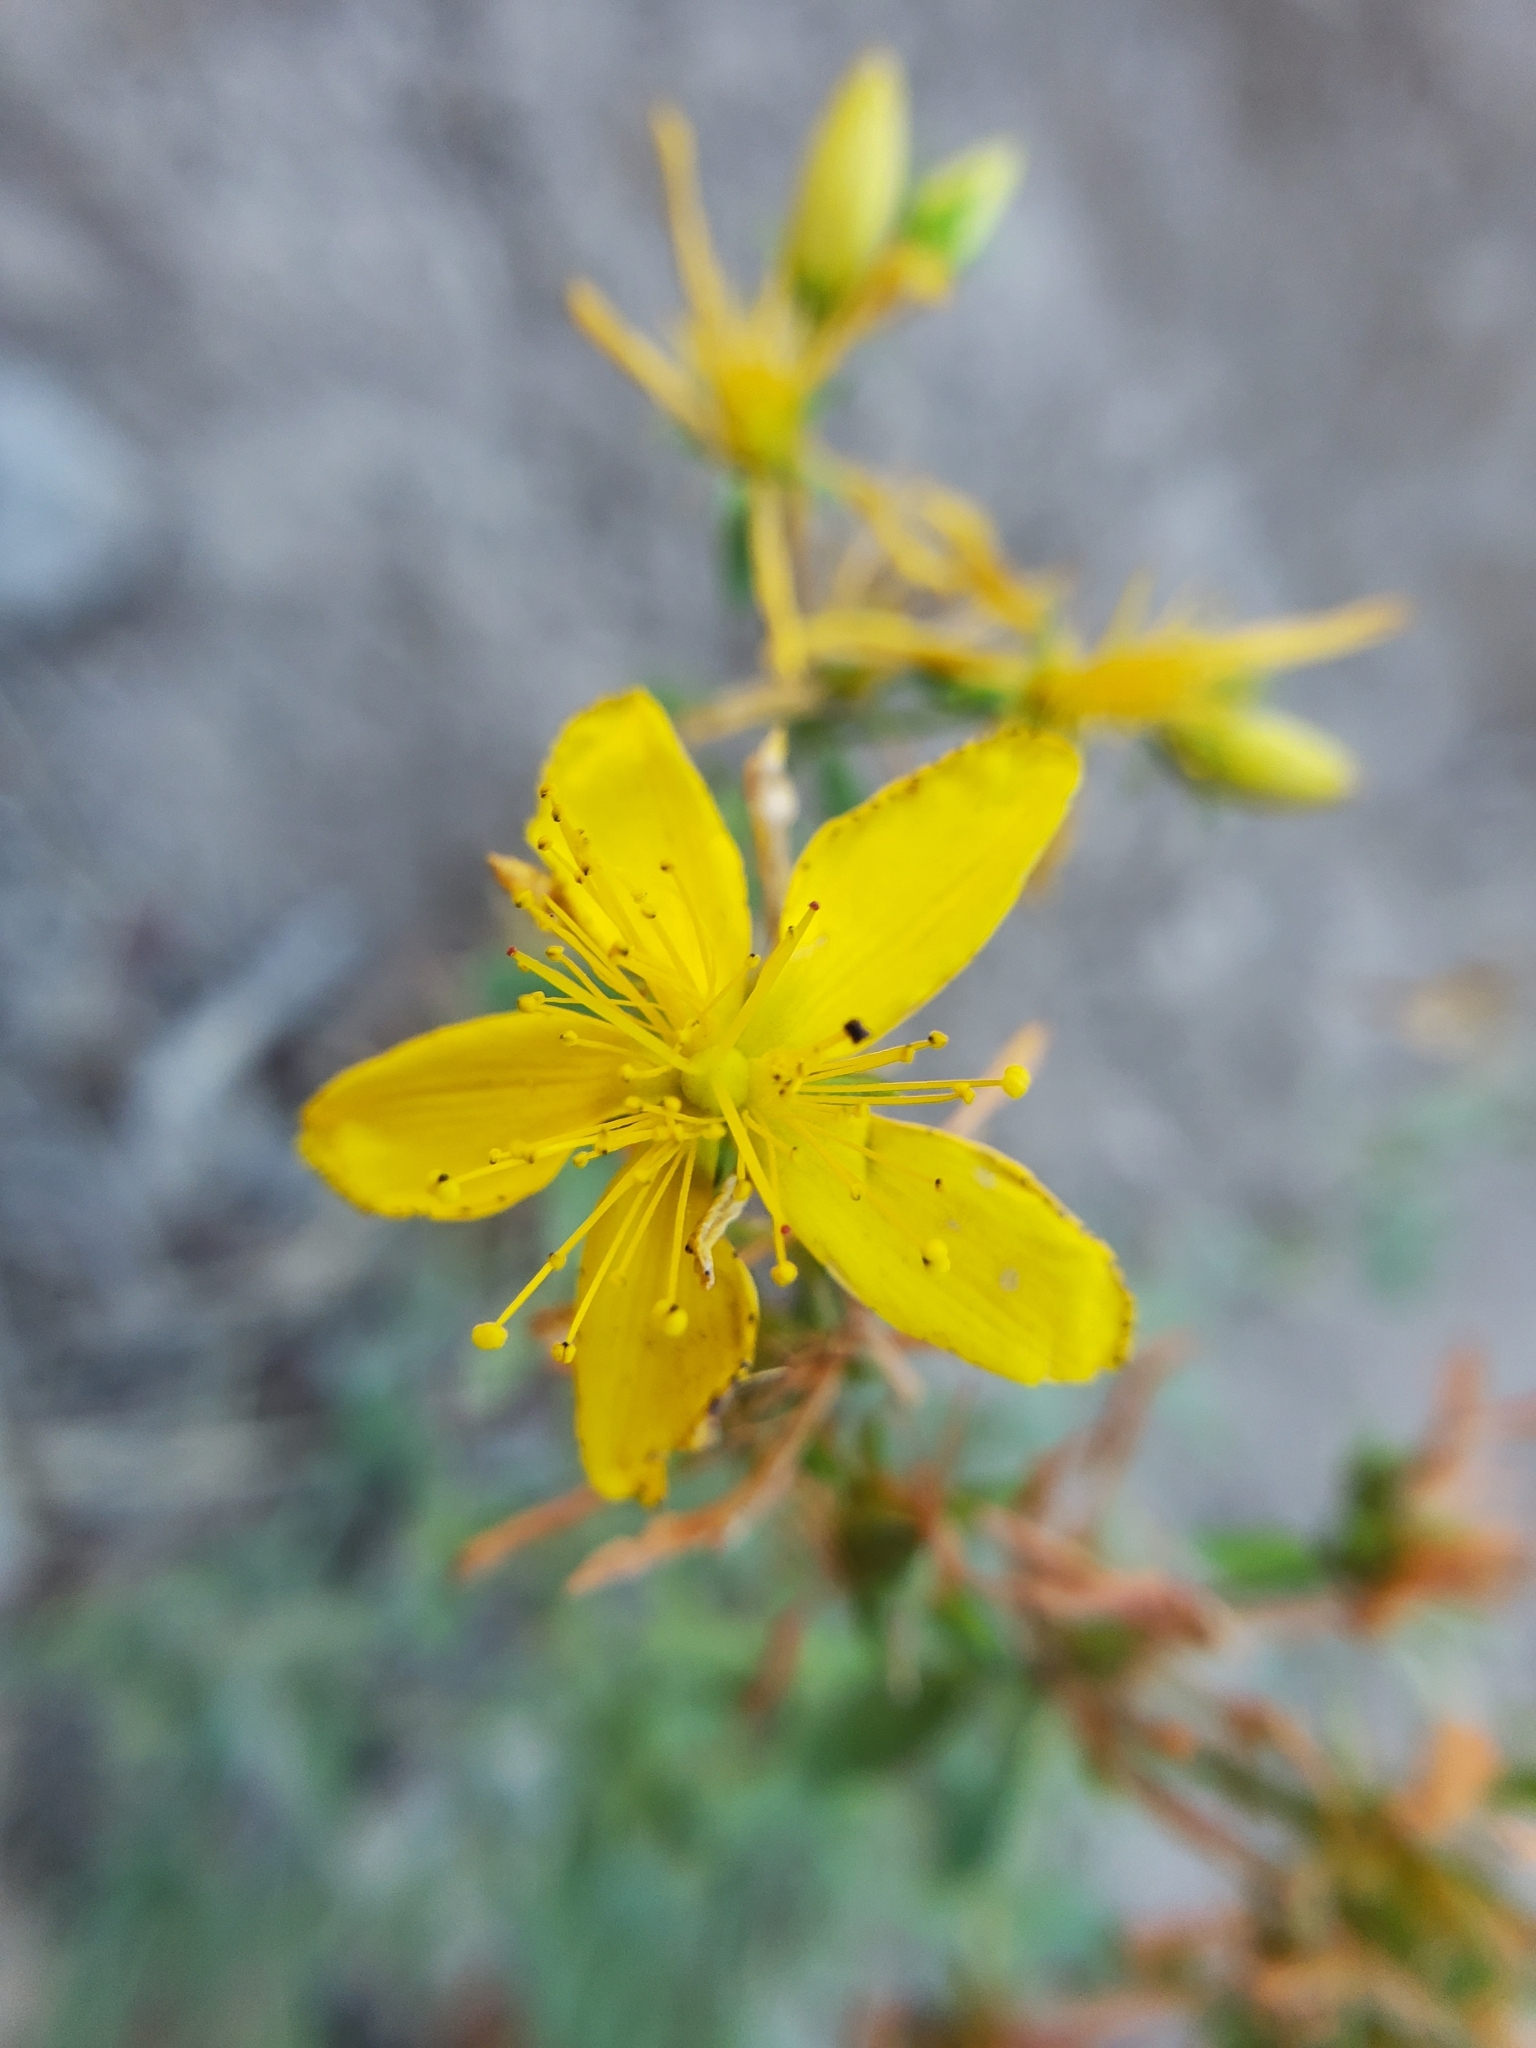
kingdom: Plantae
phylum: Tracheophyta
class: Magnoliopsida
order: Malpighiales
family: Hypericaceae
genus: Hypericum
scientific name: Hypericum perforatum
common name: Common st. johnswort
